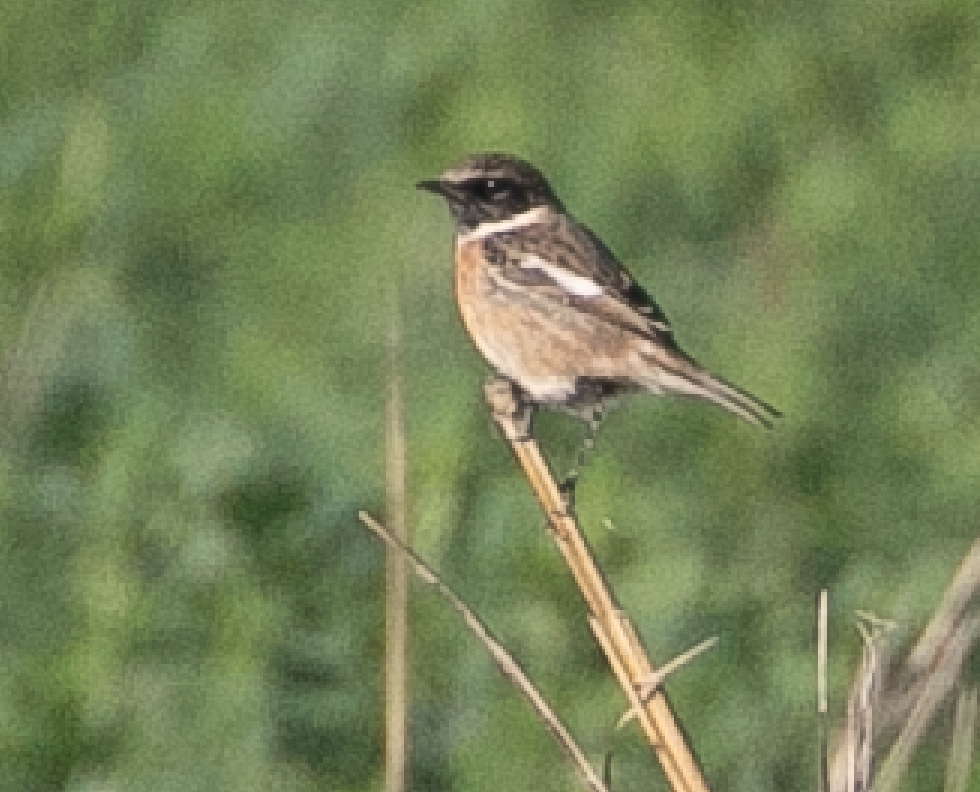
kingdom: Animalia
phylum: Chordata
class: Aves
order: Passeriformes
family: Muscicapidae
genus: Saxicola
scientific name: Saxicola rubicola
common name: European stonechat
